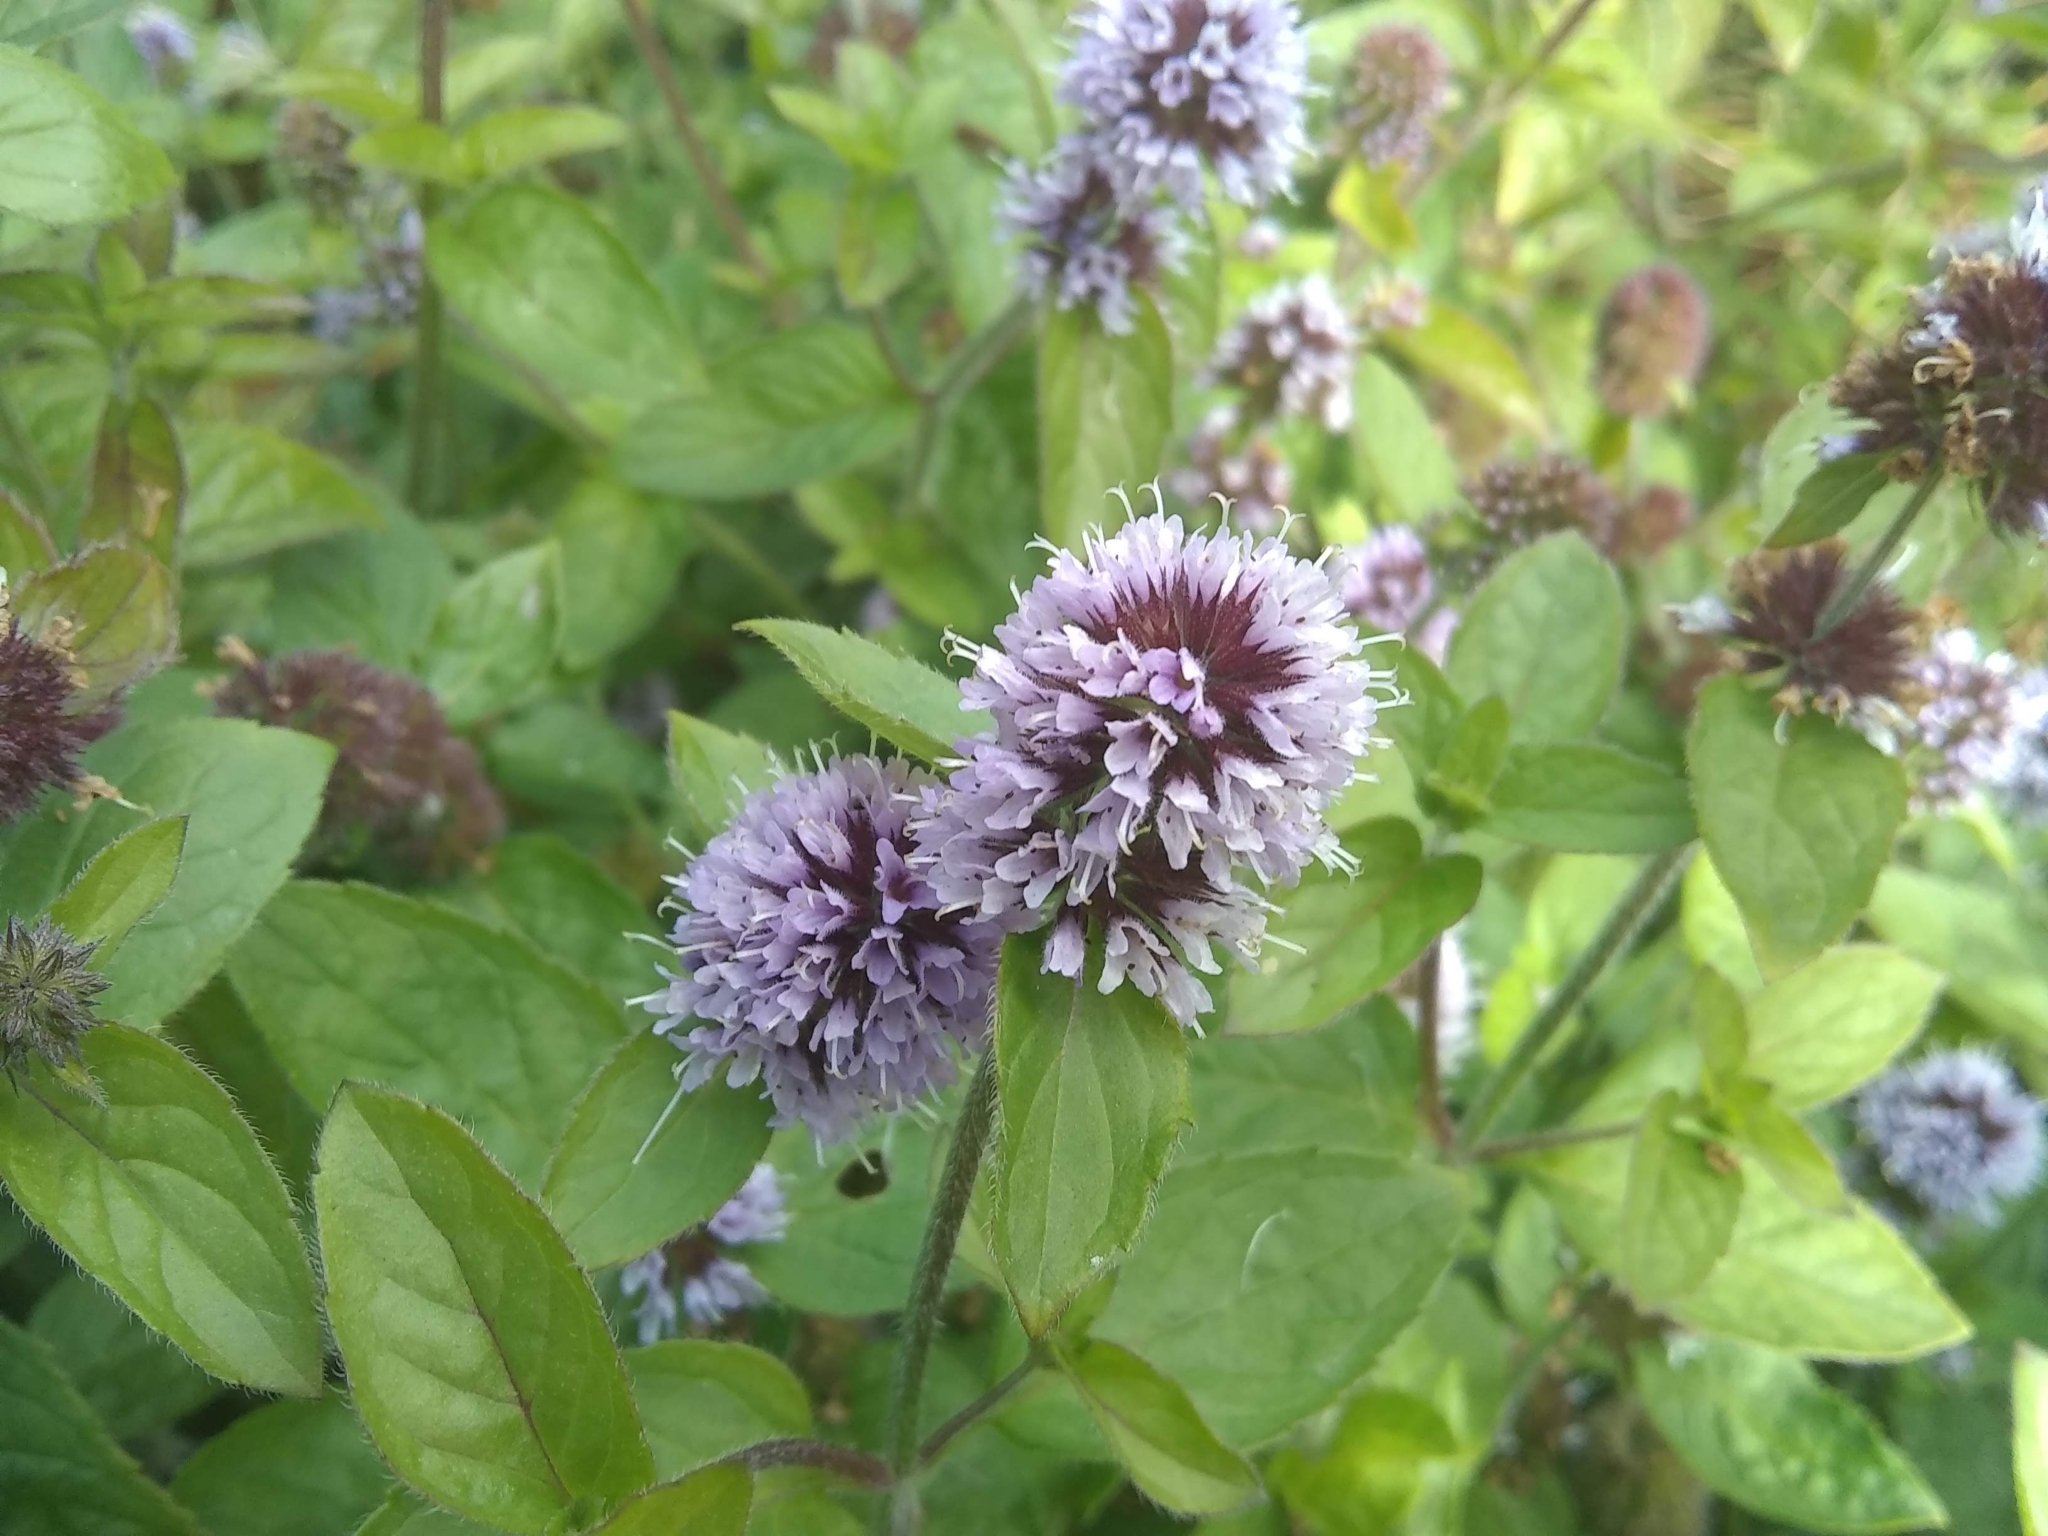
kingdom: Plantae
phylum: Tracheophyta
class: Magnoliopsida
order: Lamiales
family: Lamiaceae
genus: Mentha
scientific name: Mentha aquatica
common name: Water mint
